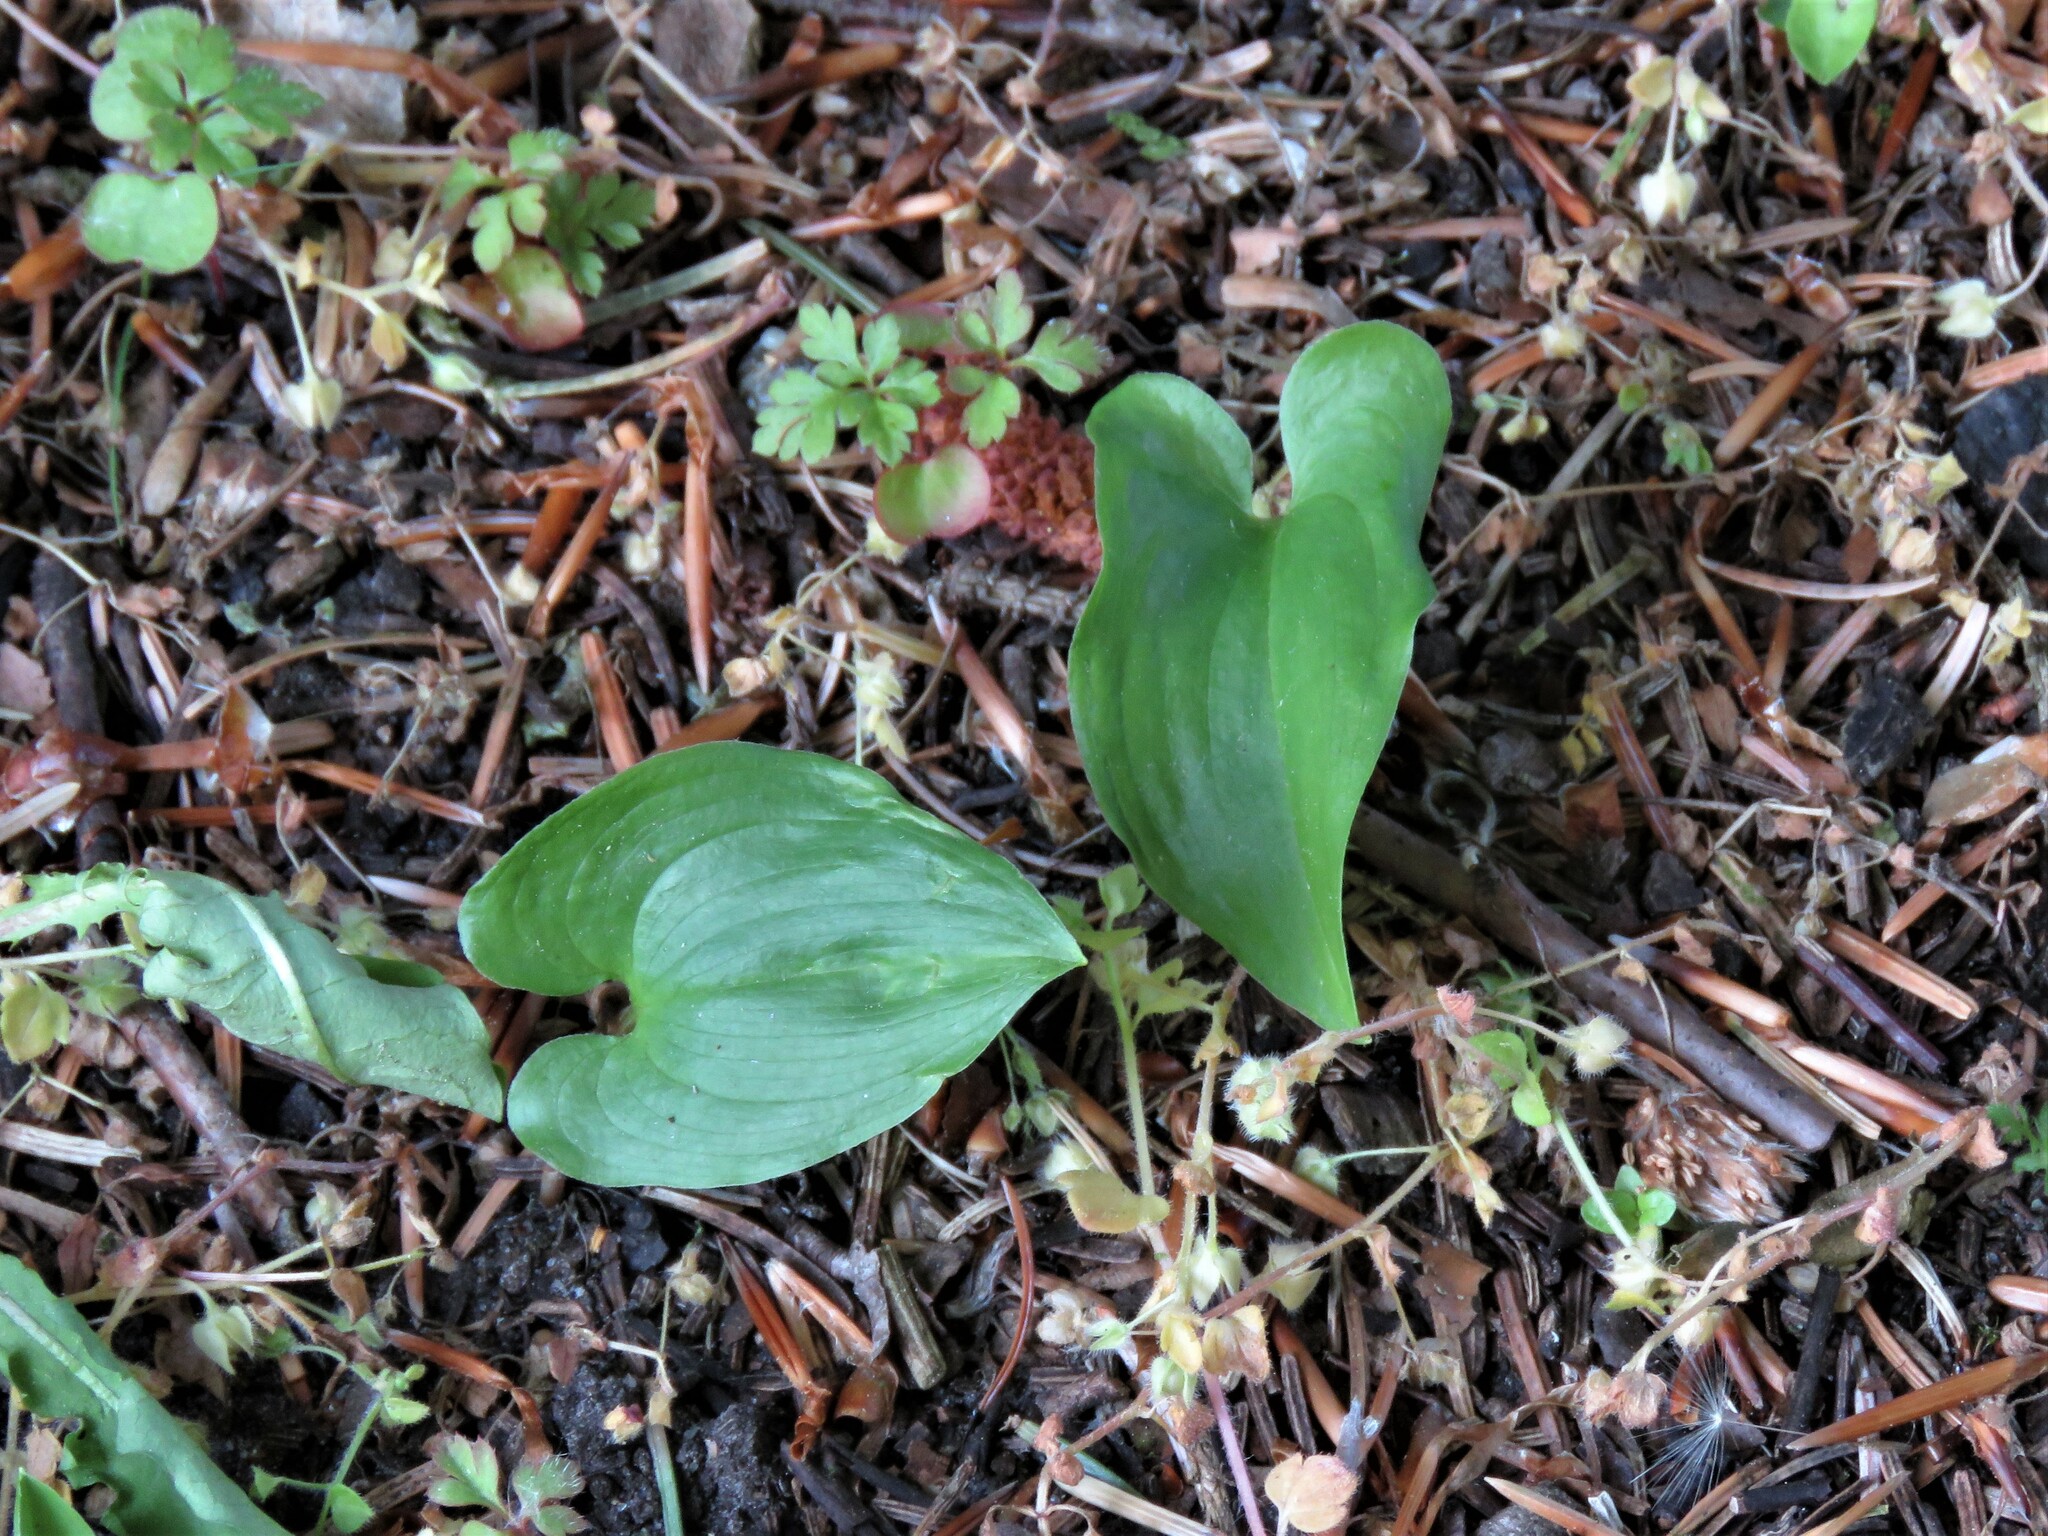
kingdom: Plantae
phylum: Tracheophyta
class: Liliopsida
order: Asparagales
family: Asparagaceae
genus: Maianthemum
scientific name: Maianthemum bifolium
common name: May lily
